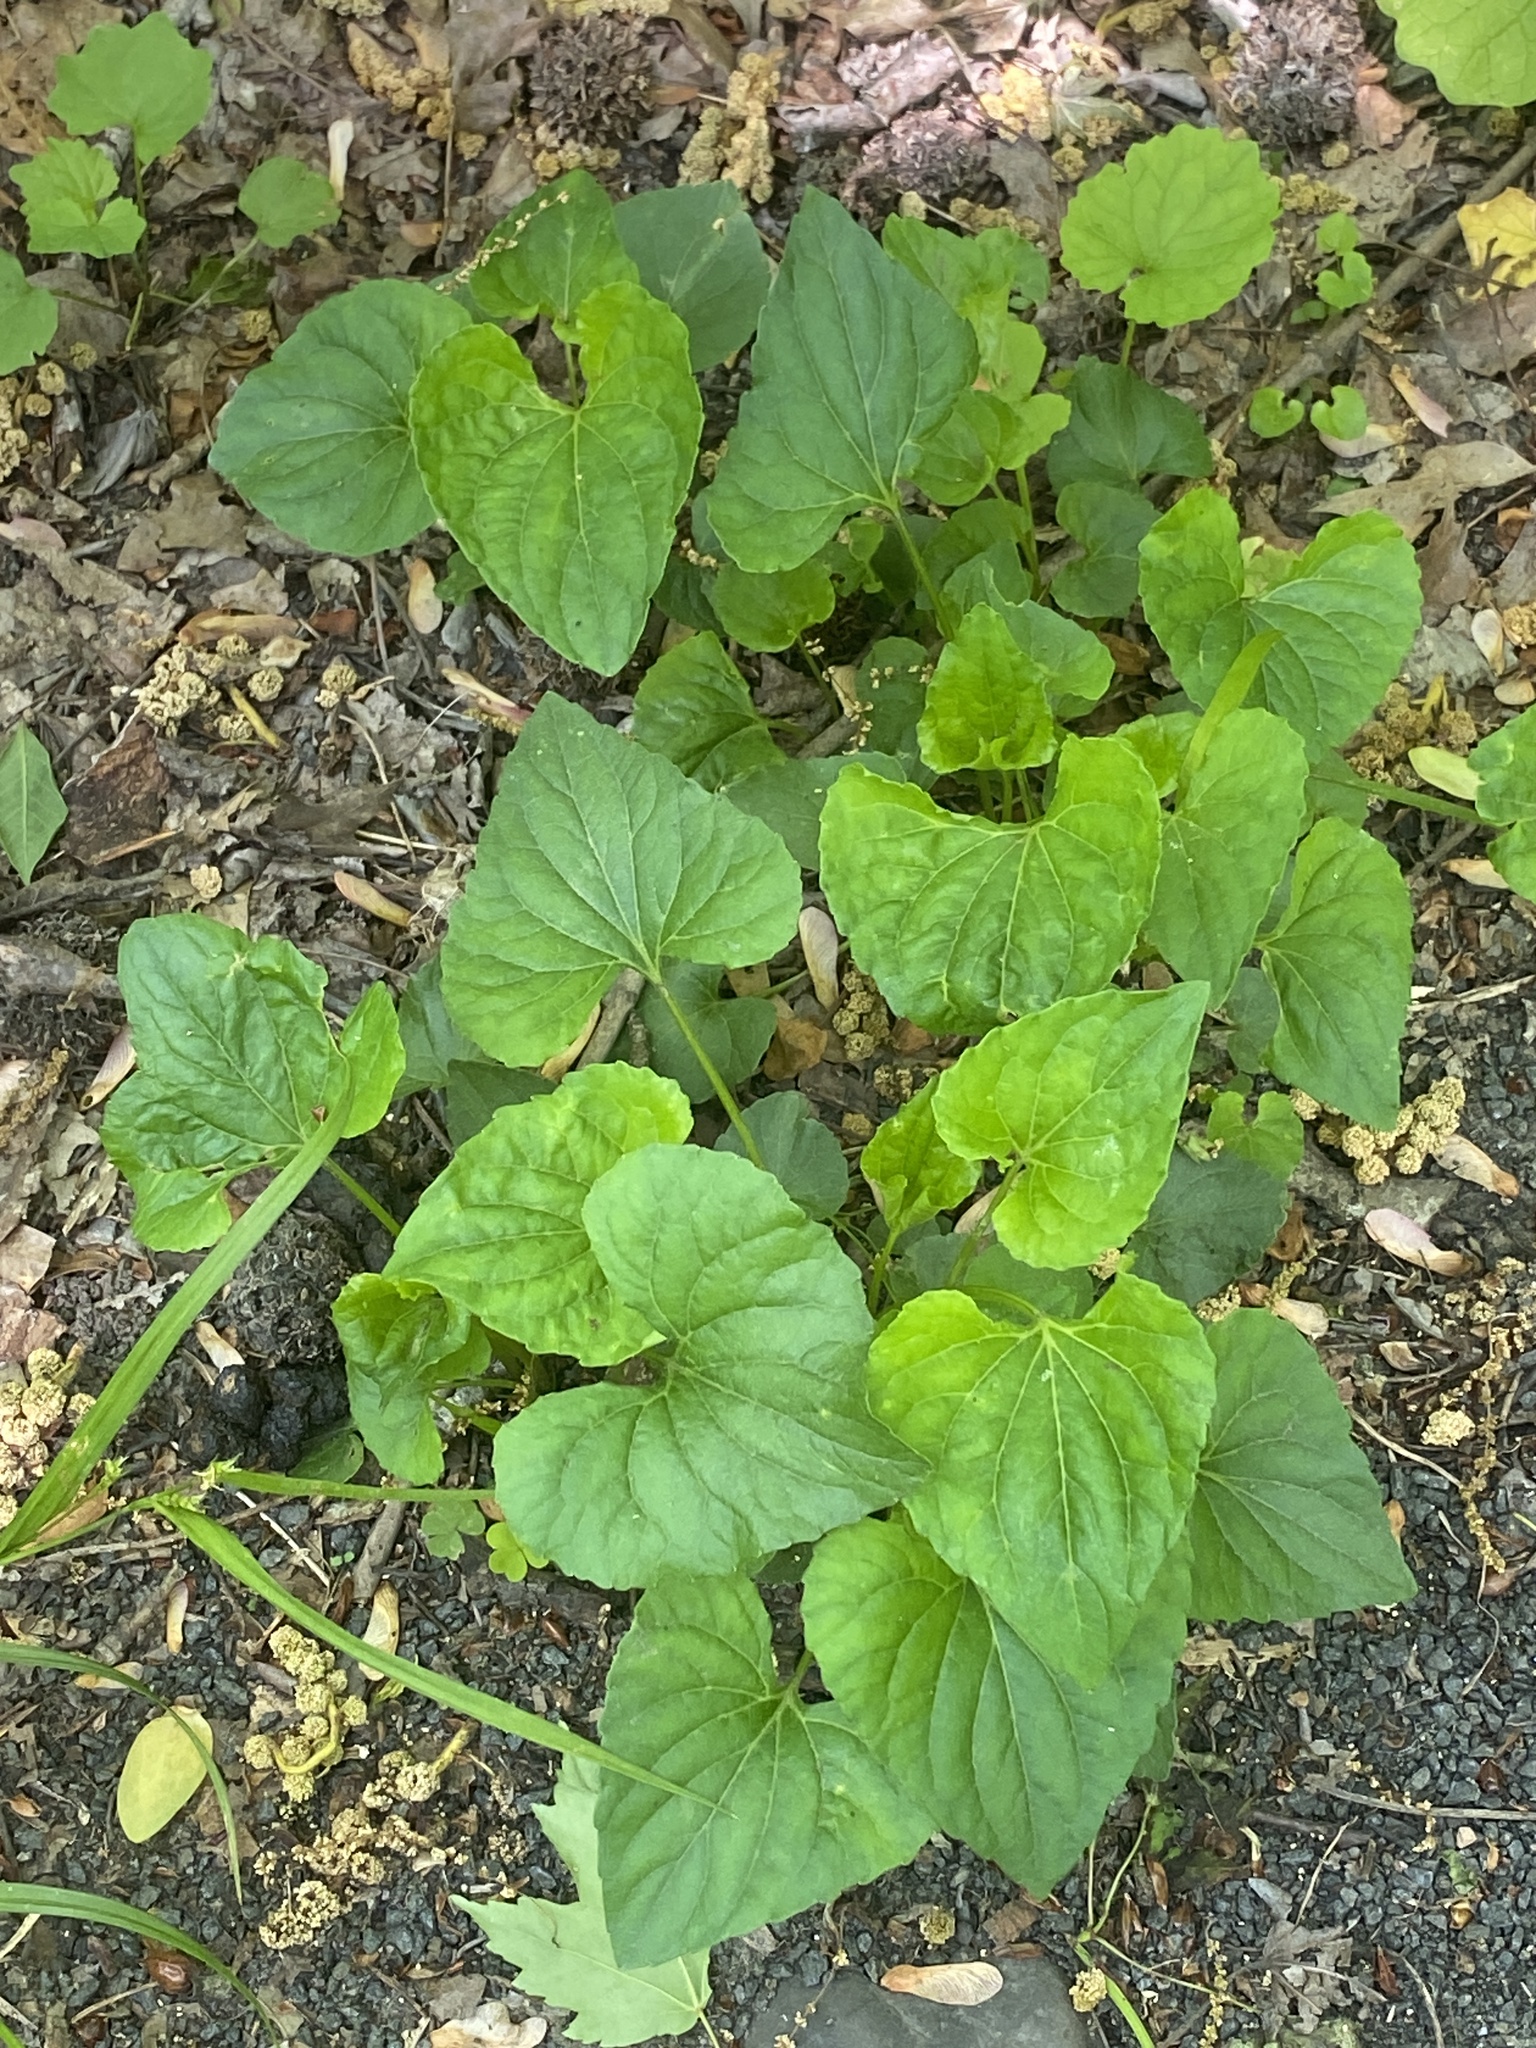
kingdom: Plantae
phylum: Tracheophyta
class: Magnoliopsida
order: Malpighiales
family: Violaceae
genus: Viola
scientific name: Viola sororia
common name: Dooryard violet
